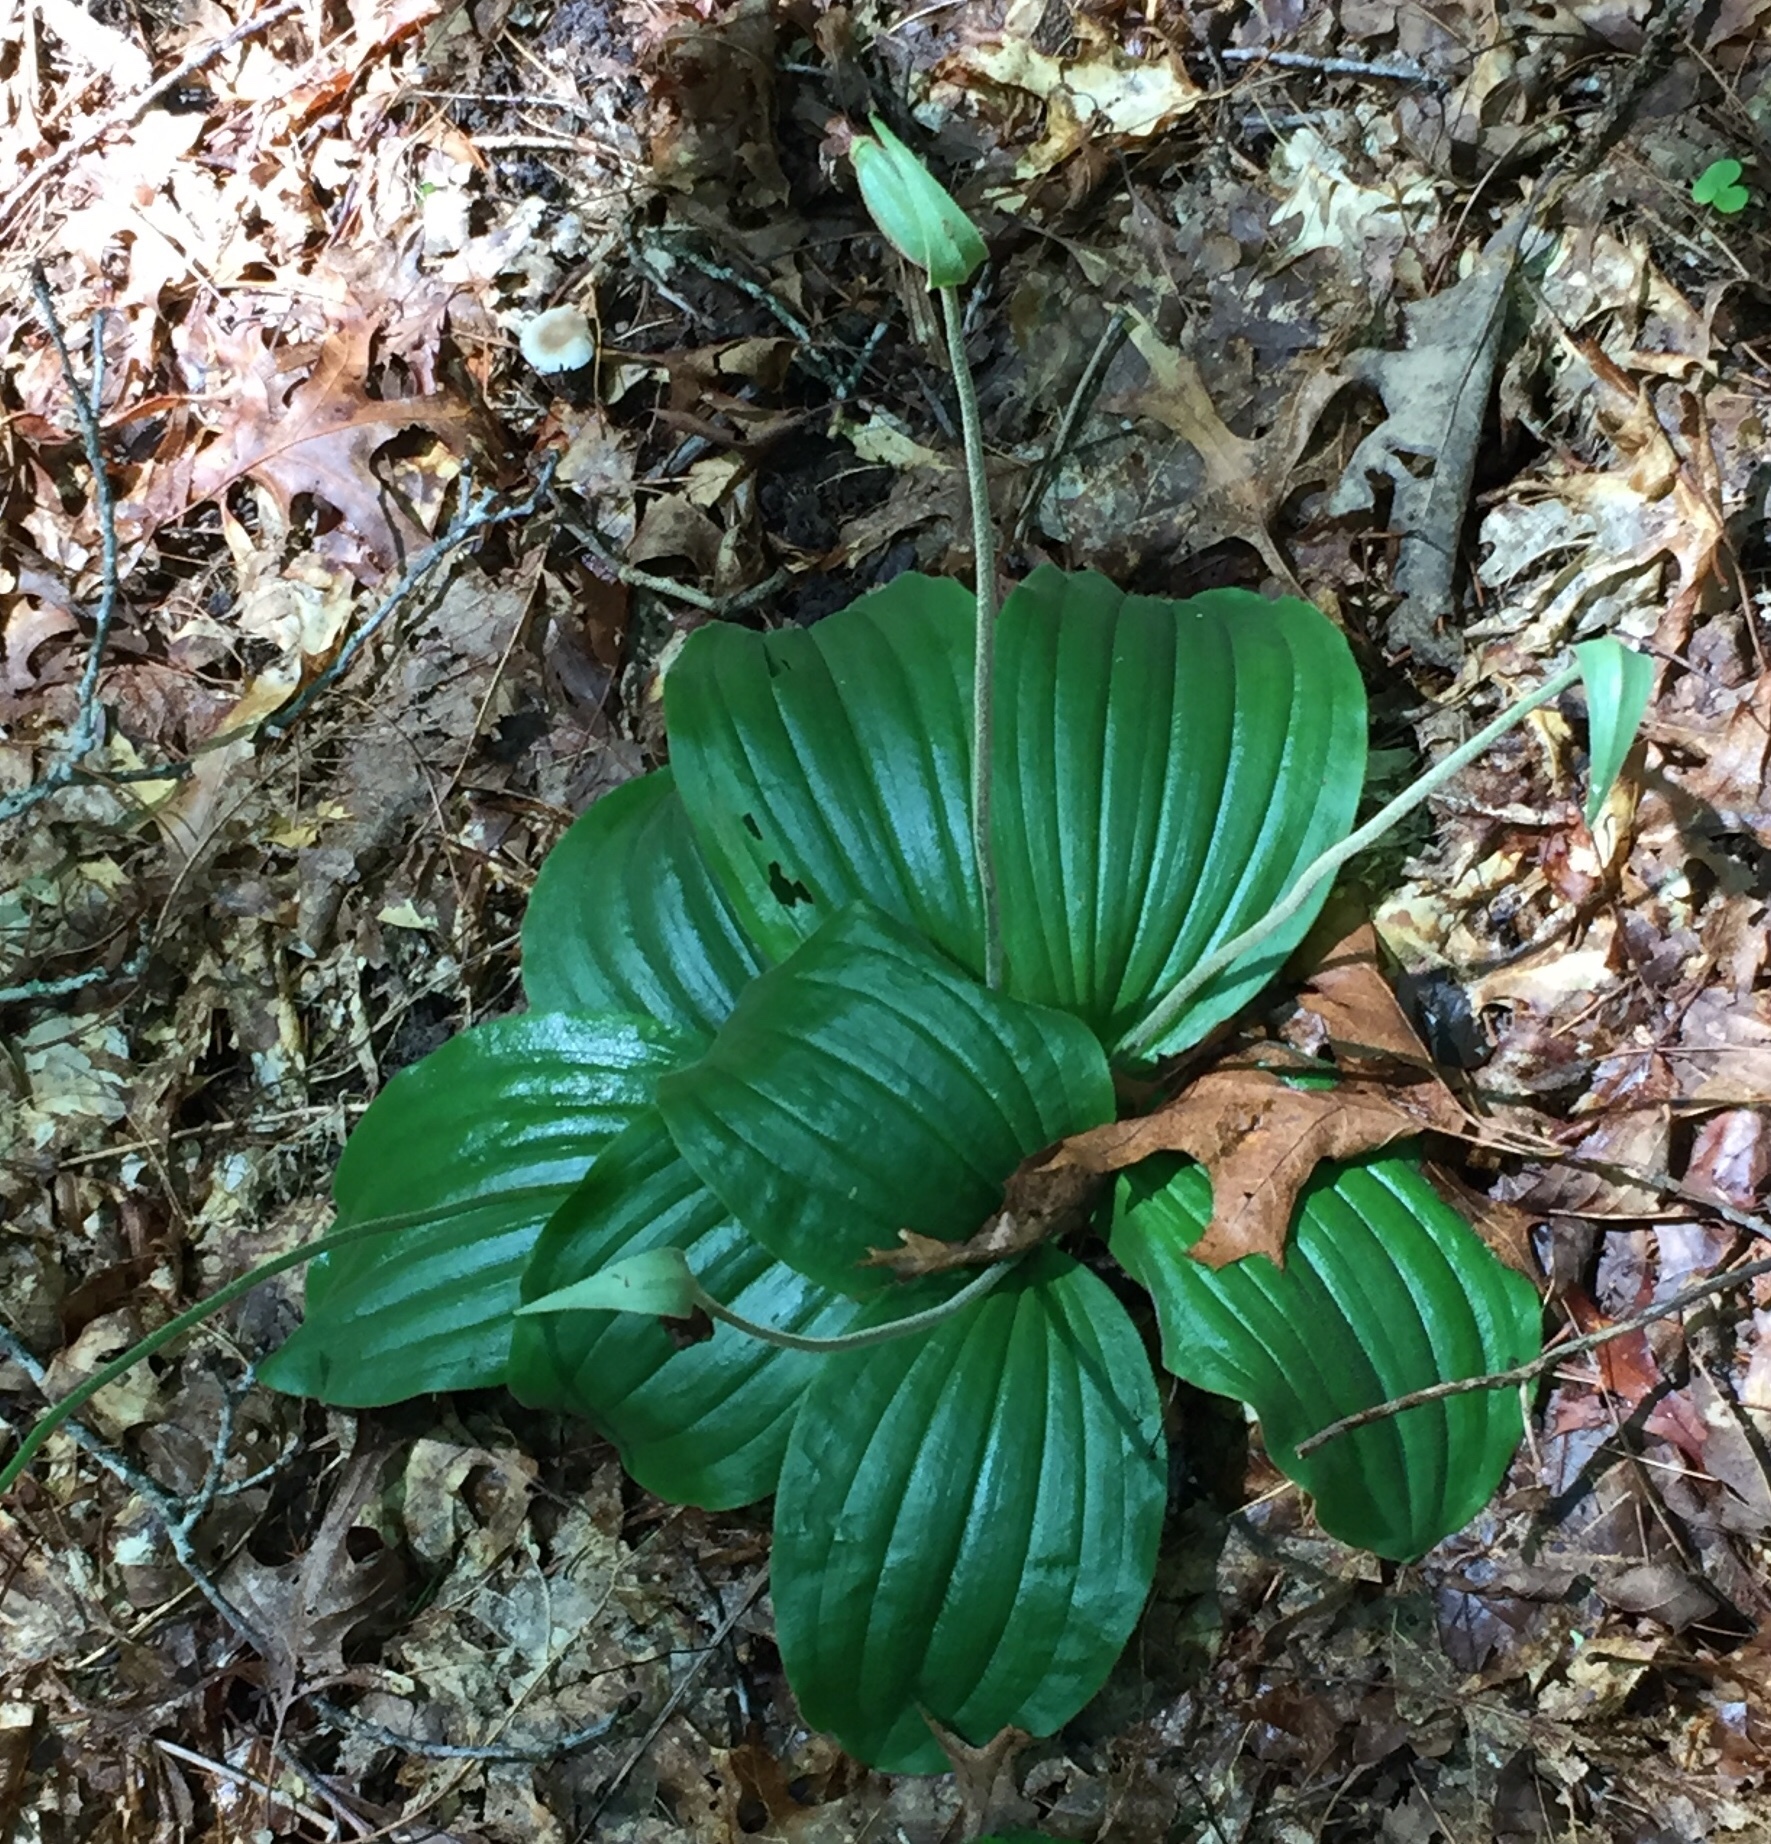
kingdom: Plantae
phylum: Tracheophyta
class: Liliopsida
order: Asparagales
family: Orchidaceae
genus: Cypripedium
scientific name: Cypripedium acaule
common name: Pink lady's-slipper
